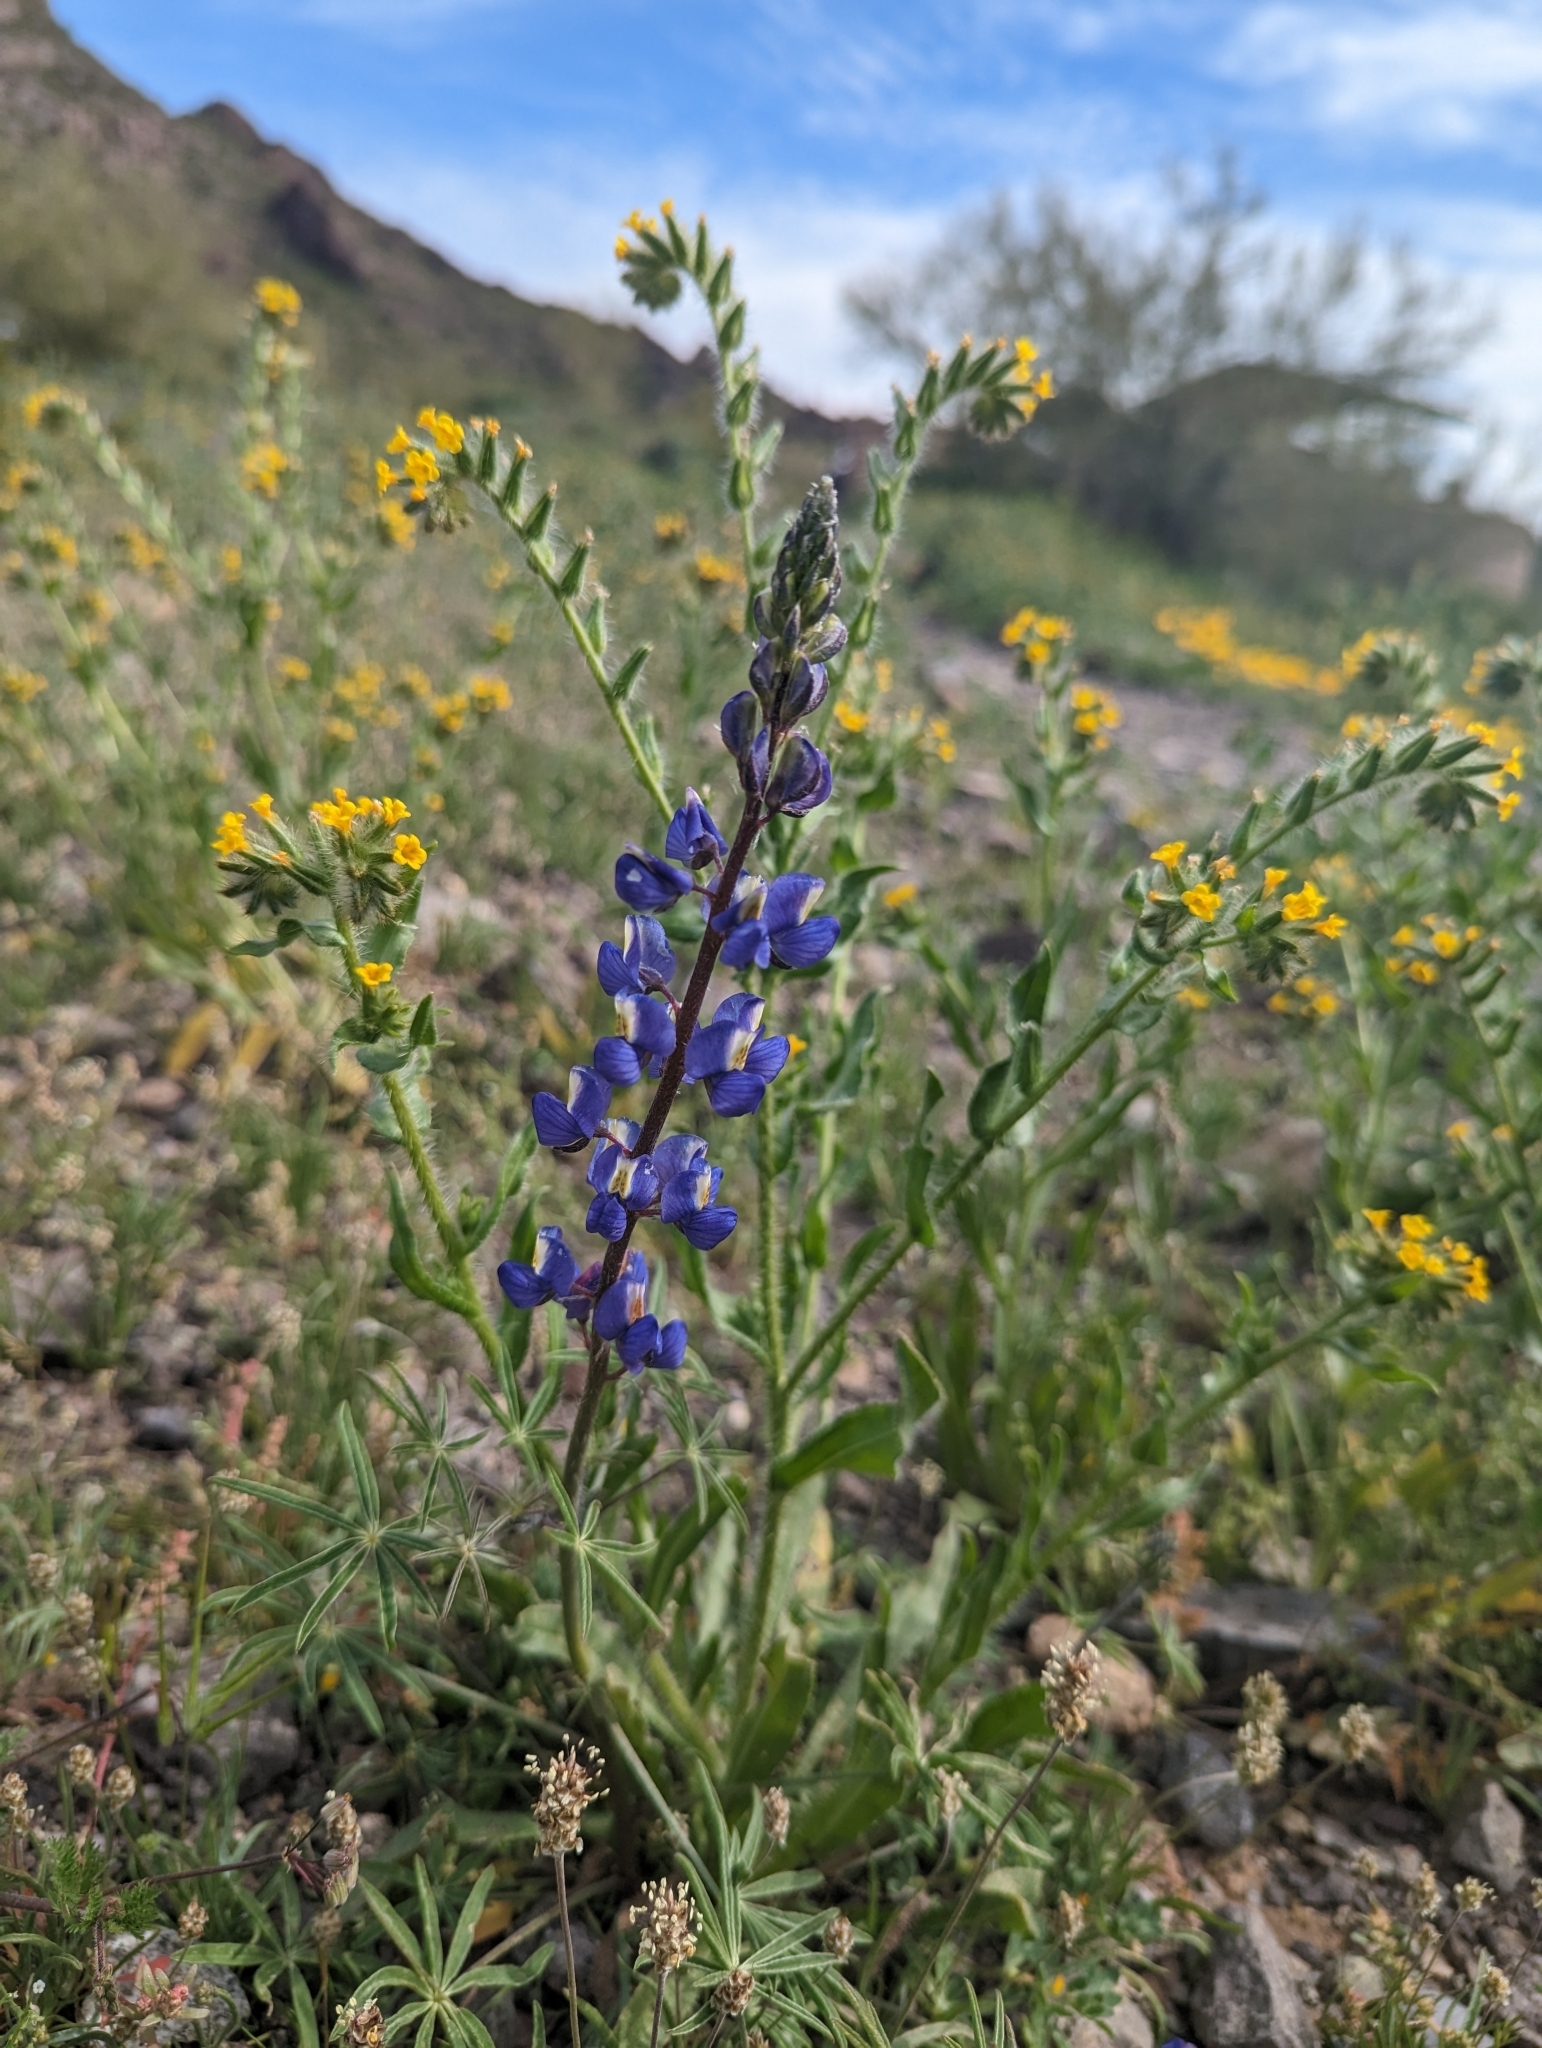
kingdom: Plantae
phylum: Tracheophyta
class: Magnoliopsida
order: Fabales
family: Fabaceae
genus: Lupinus
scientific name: Lupinus sparsiflorus
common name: Coulter's lupine
